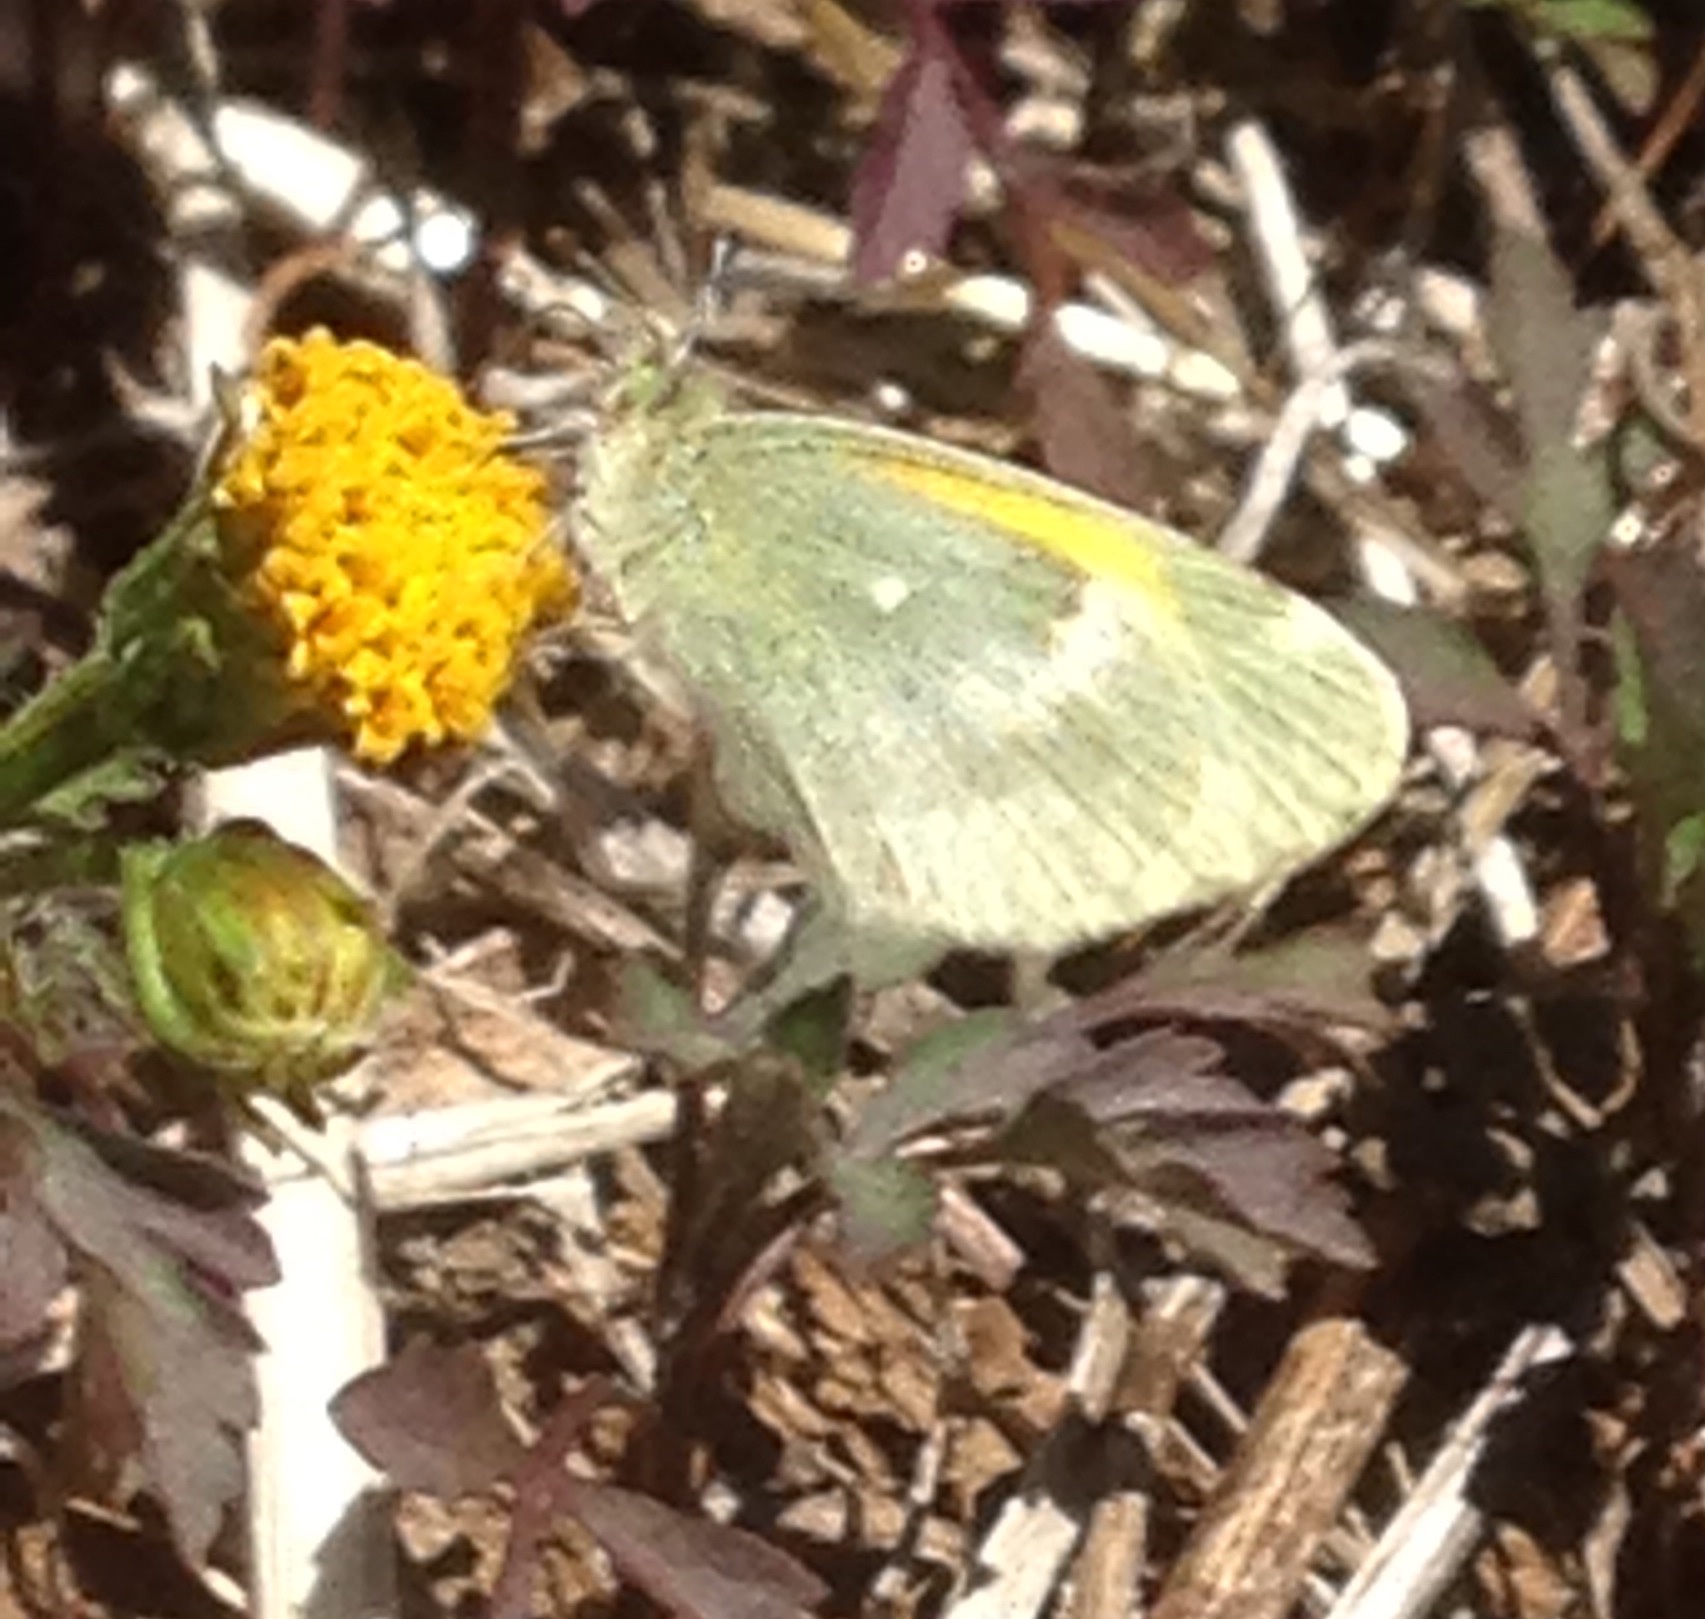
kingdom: Animalia
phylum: Arthropoda
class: Insecta
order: Lepidoptera
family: Pieridae
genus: Nathalis
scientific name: Nathalis iole
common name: Dainty sulphur
